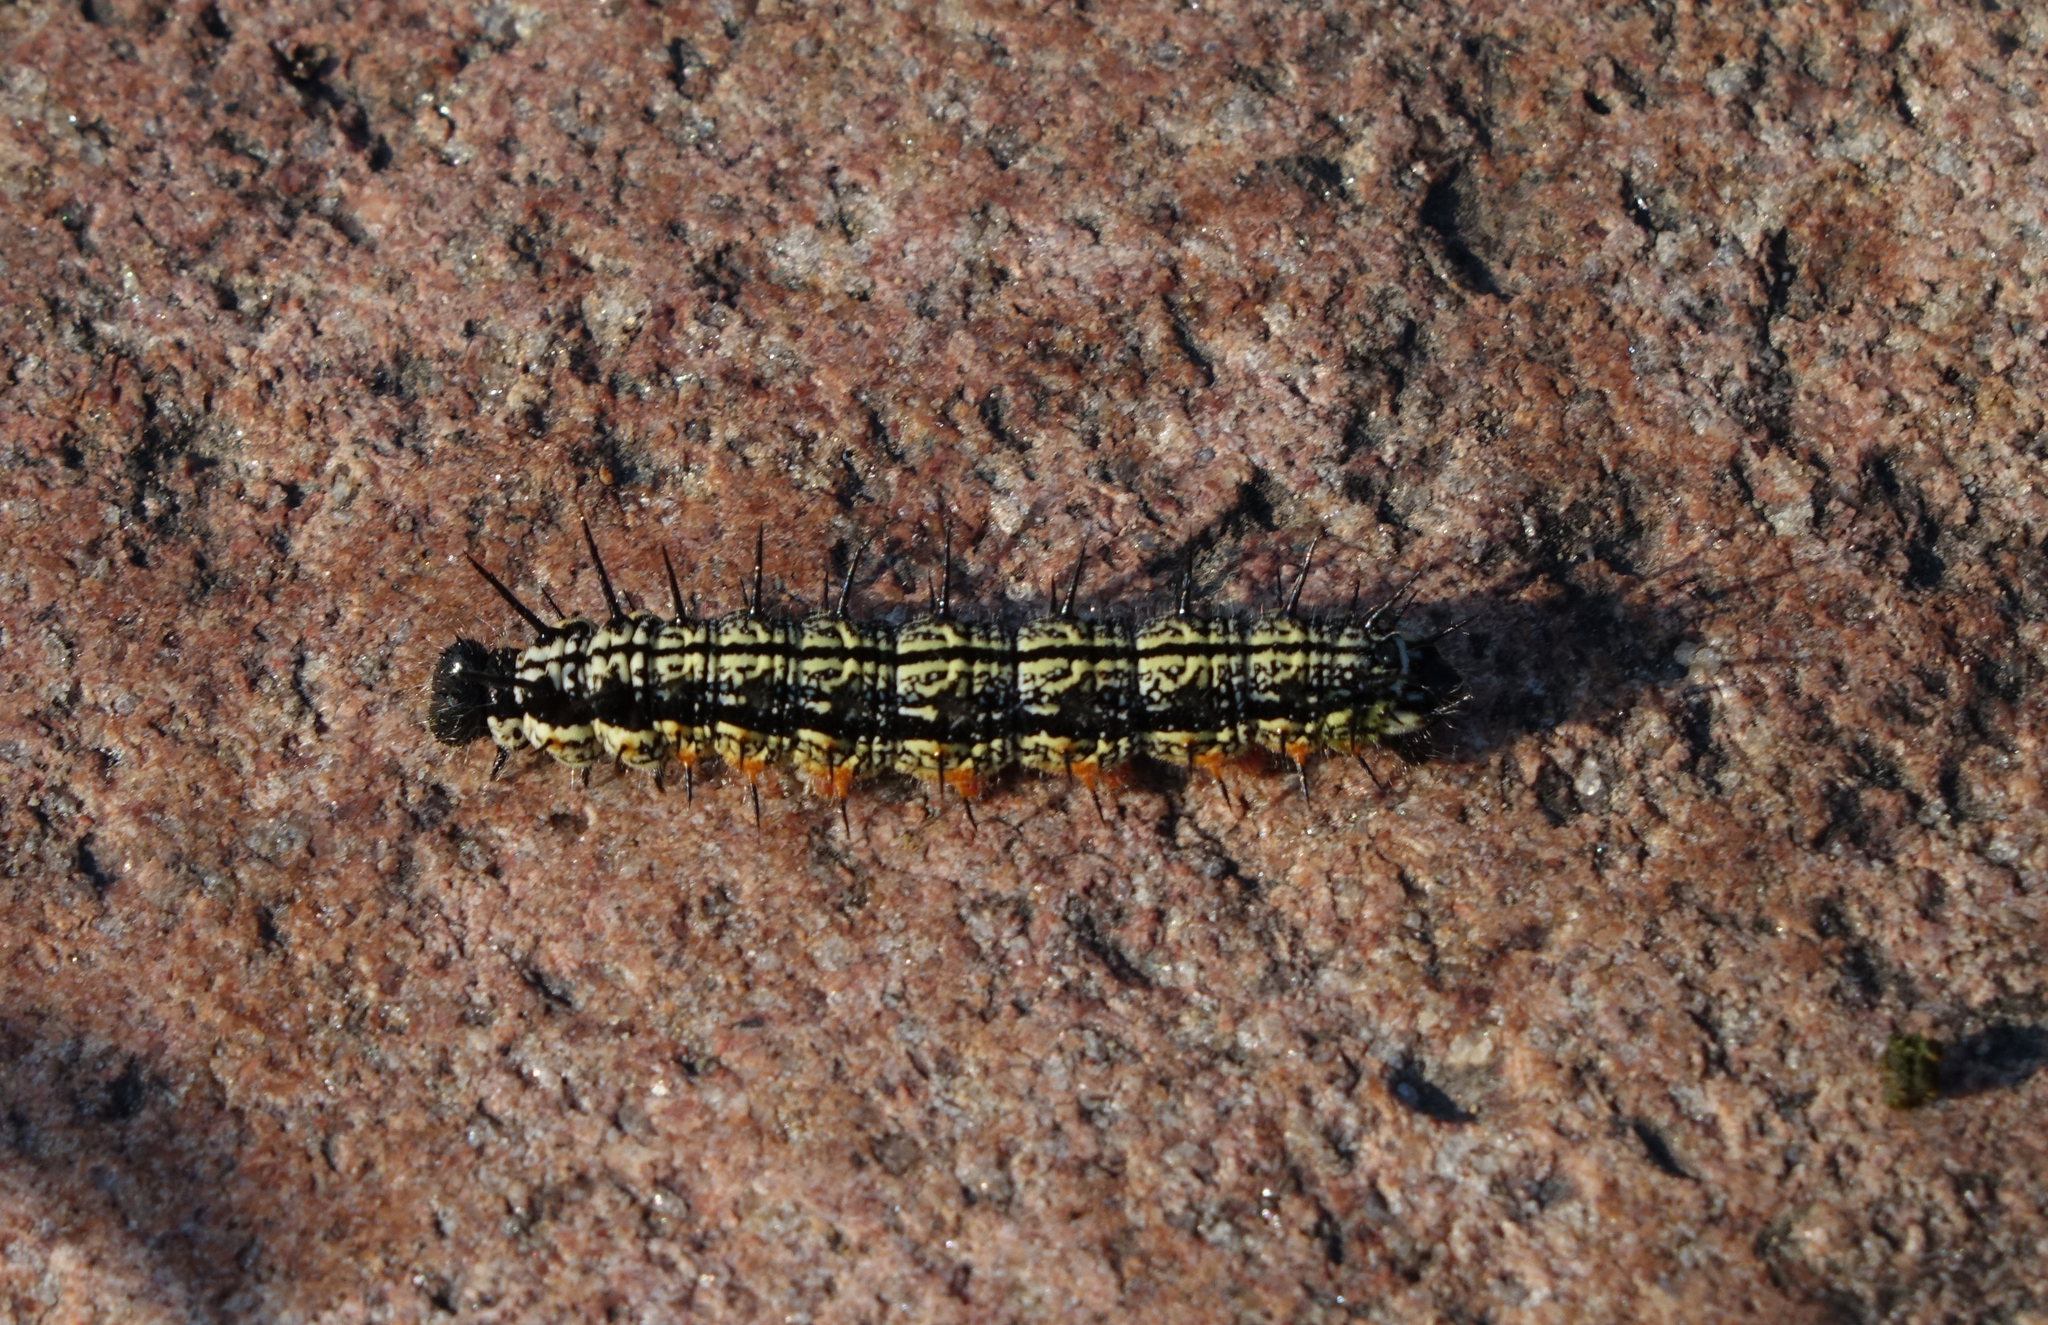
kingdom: Animalia
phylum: Arthropoda
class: Insecta
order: Lepidoptera
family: Nymphalidae
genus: Aglais
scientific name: Aglais urticae
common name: Small tortoiseshell
